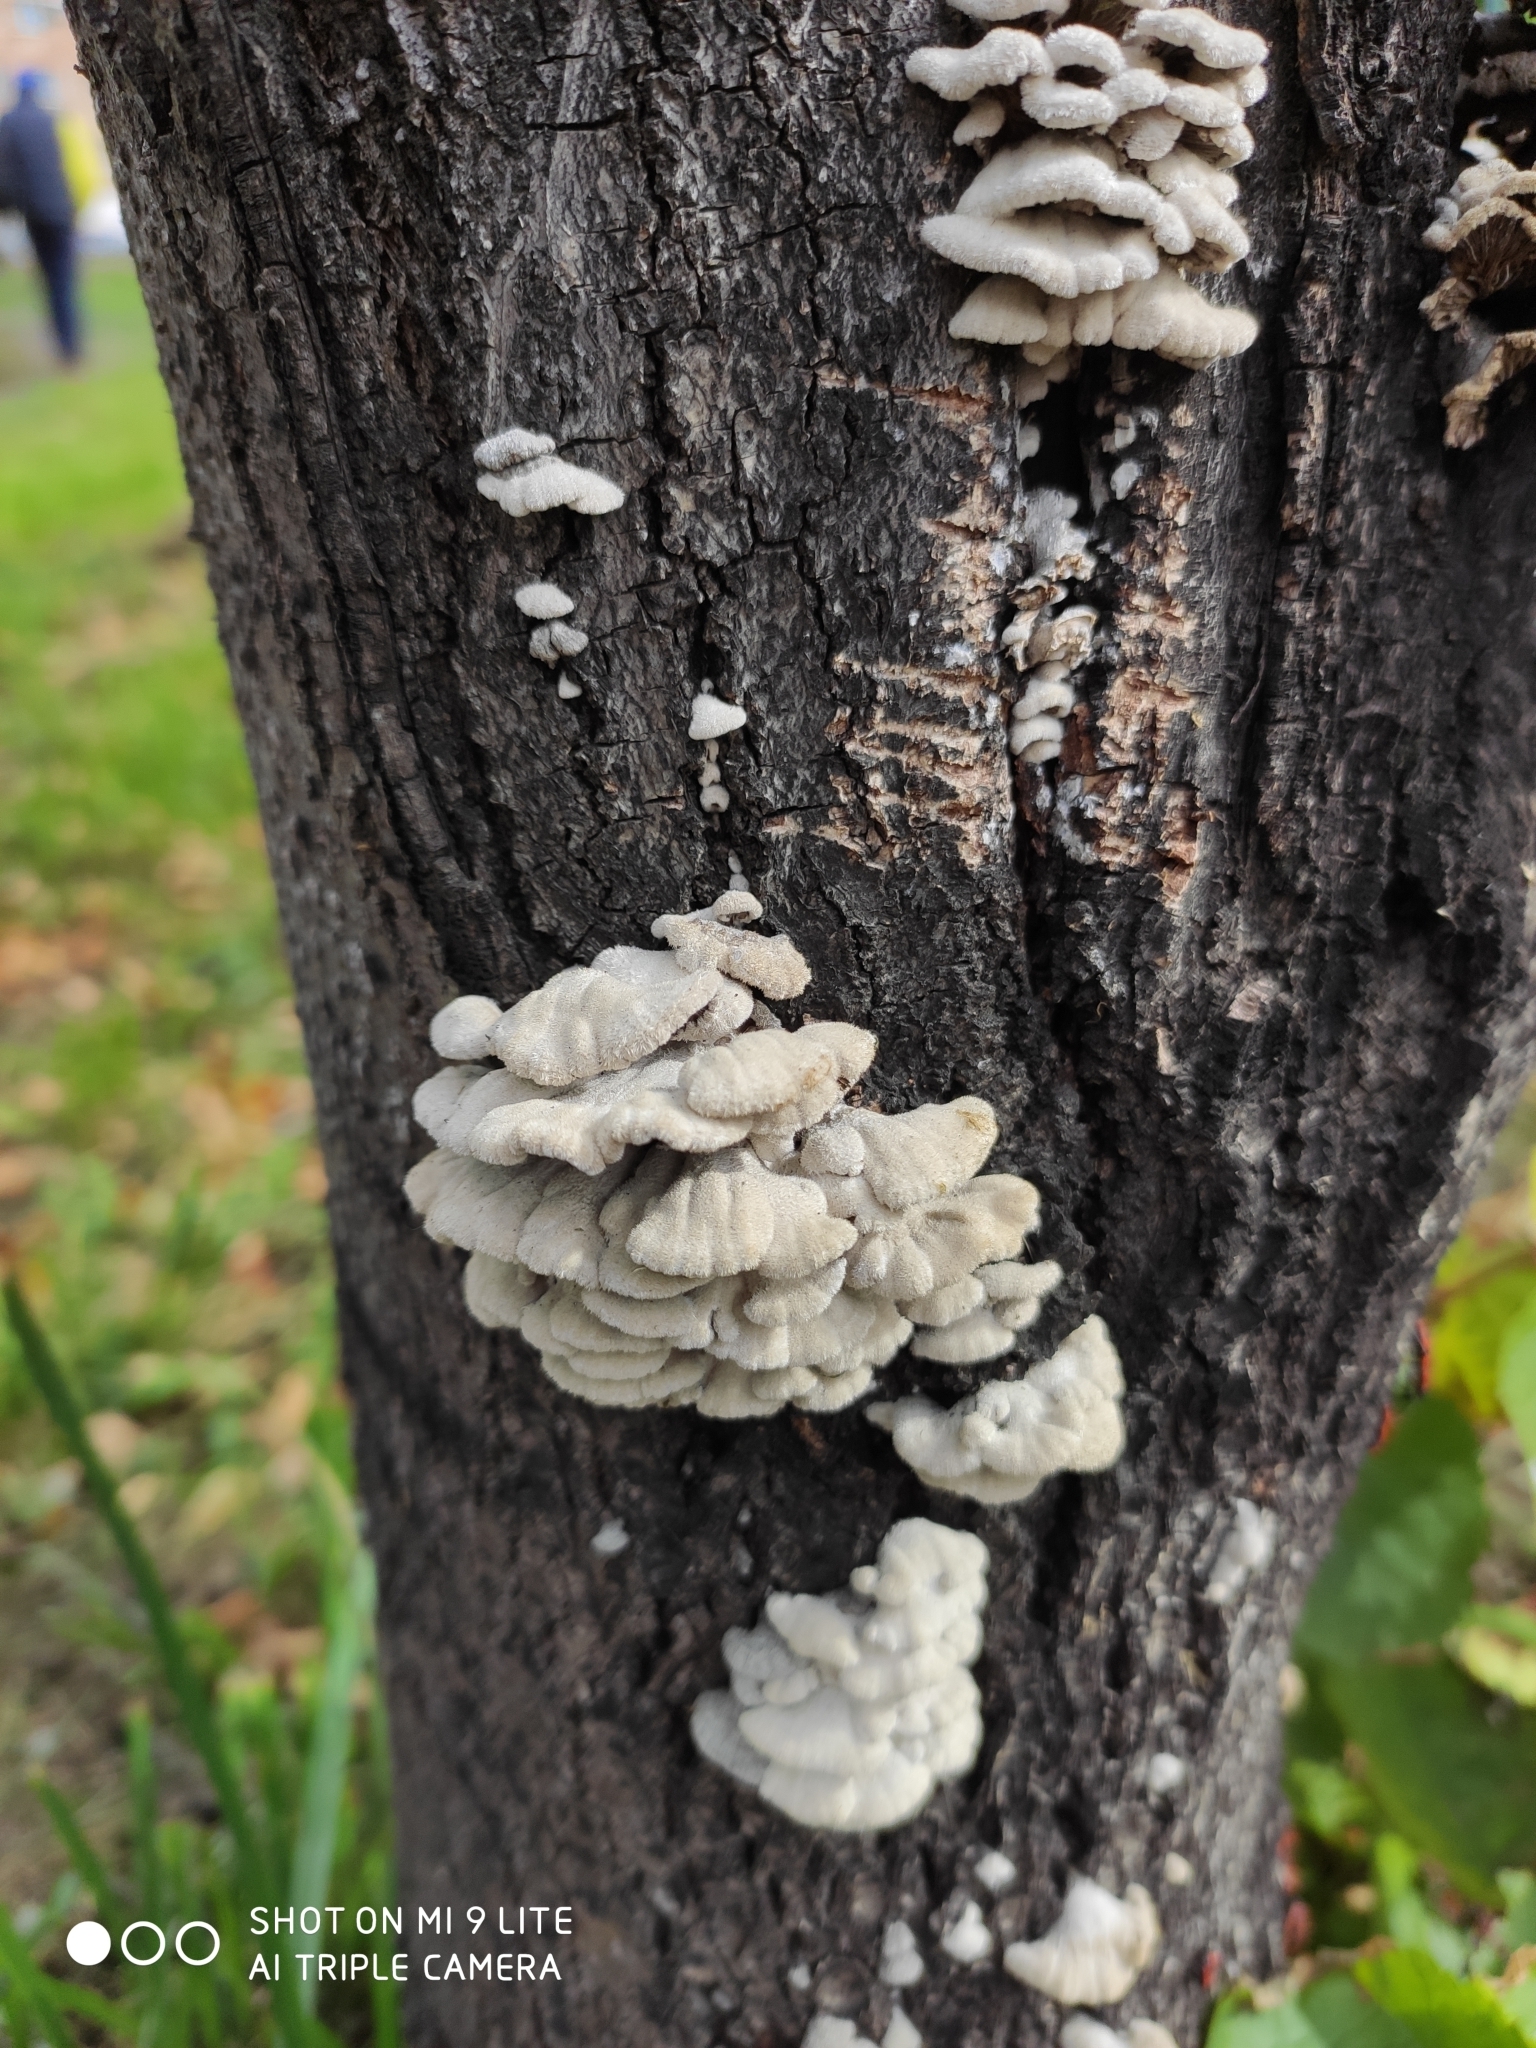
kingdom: Fungi
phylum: Basidiomycota
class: Agaricomycetes
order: Agaricales
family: Schizophyllaceae
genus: Schizophyllum
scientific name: Schizophyllum commune
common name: Common porecrust
